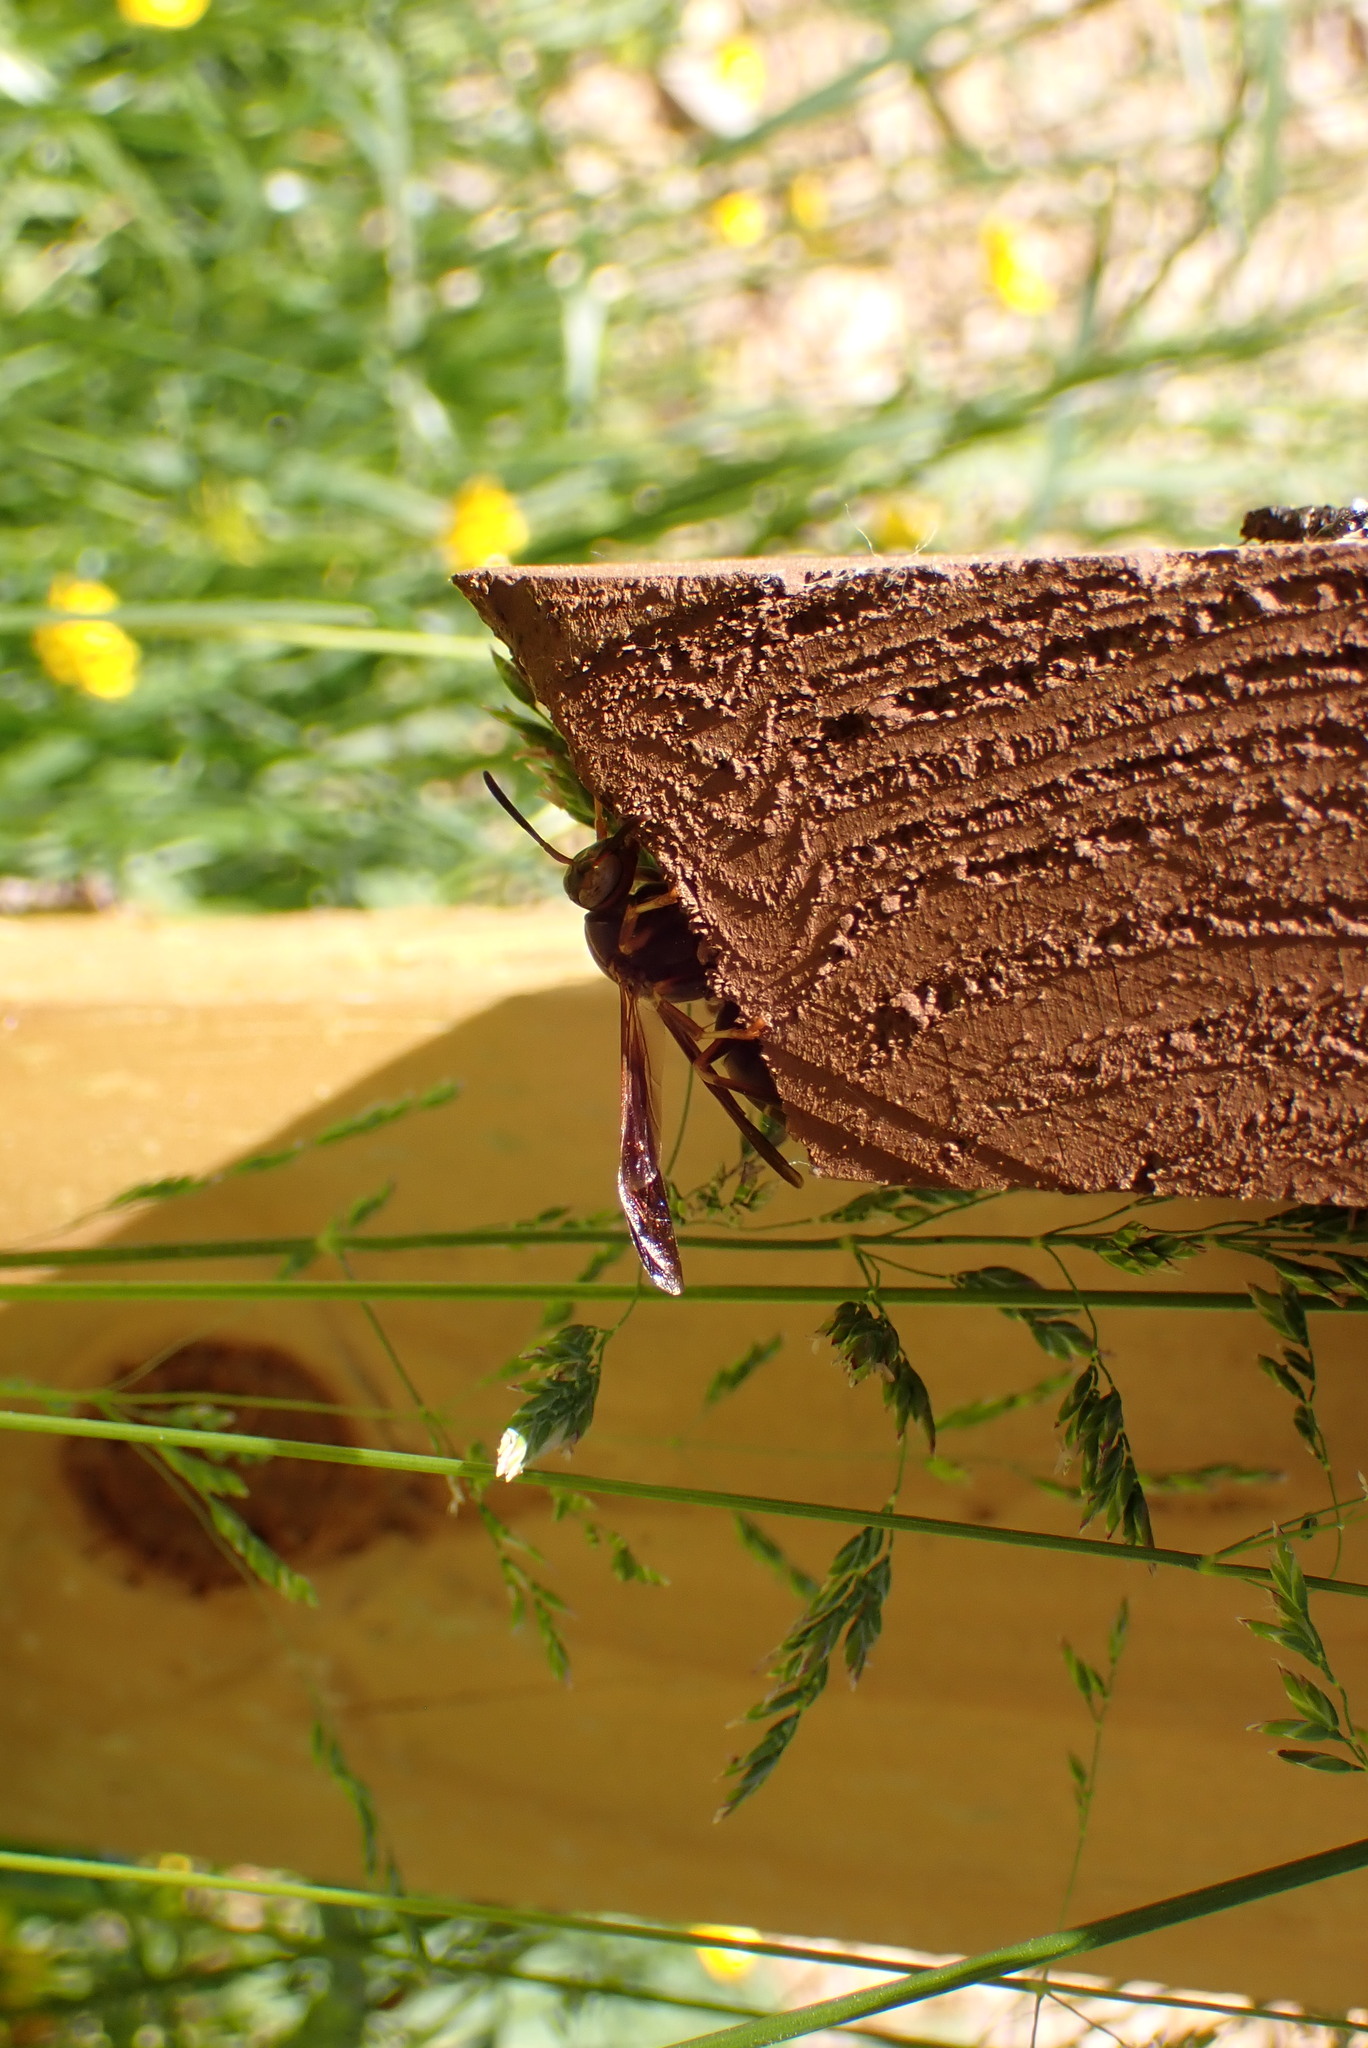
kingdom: Animalia
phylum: Arthropoda
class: Insecta
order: Hymenoptera
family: Vespidae
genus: Fuscopolistes
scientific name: Fuscopolistes
